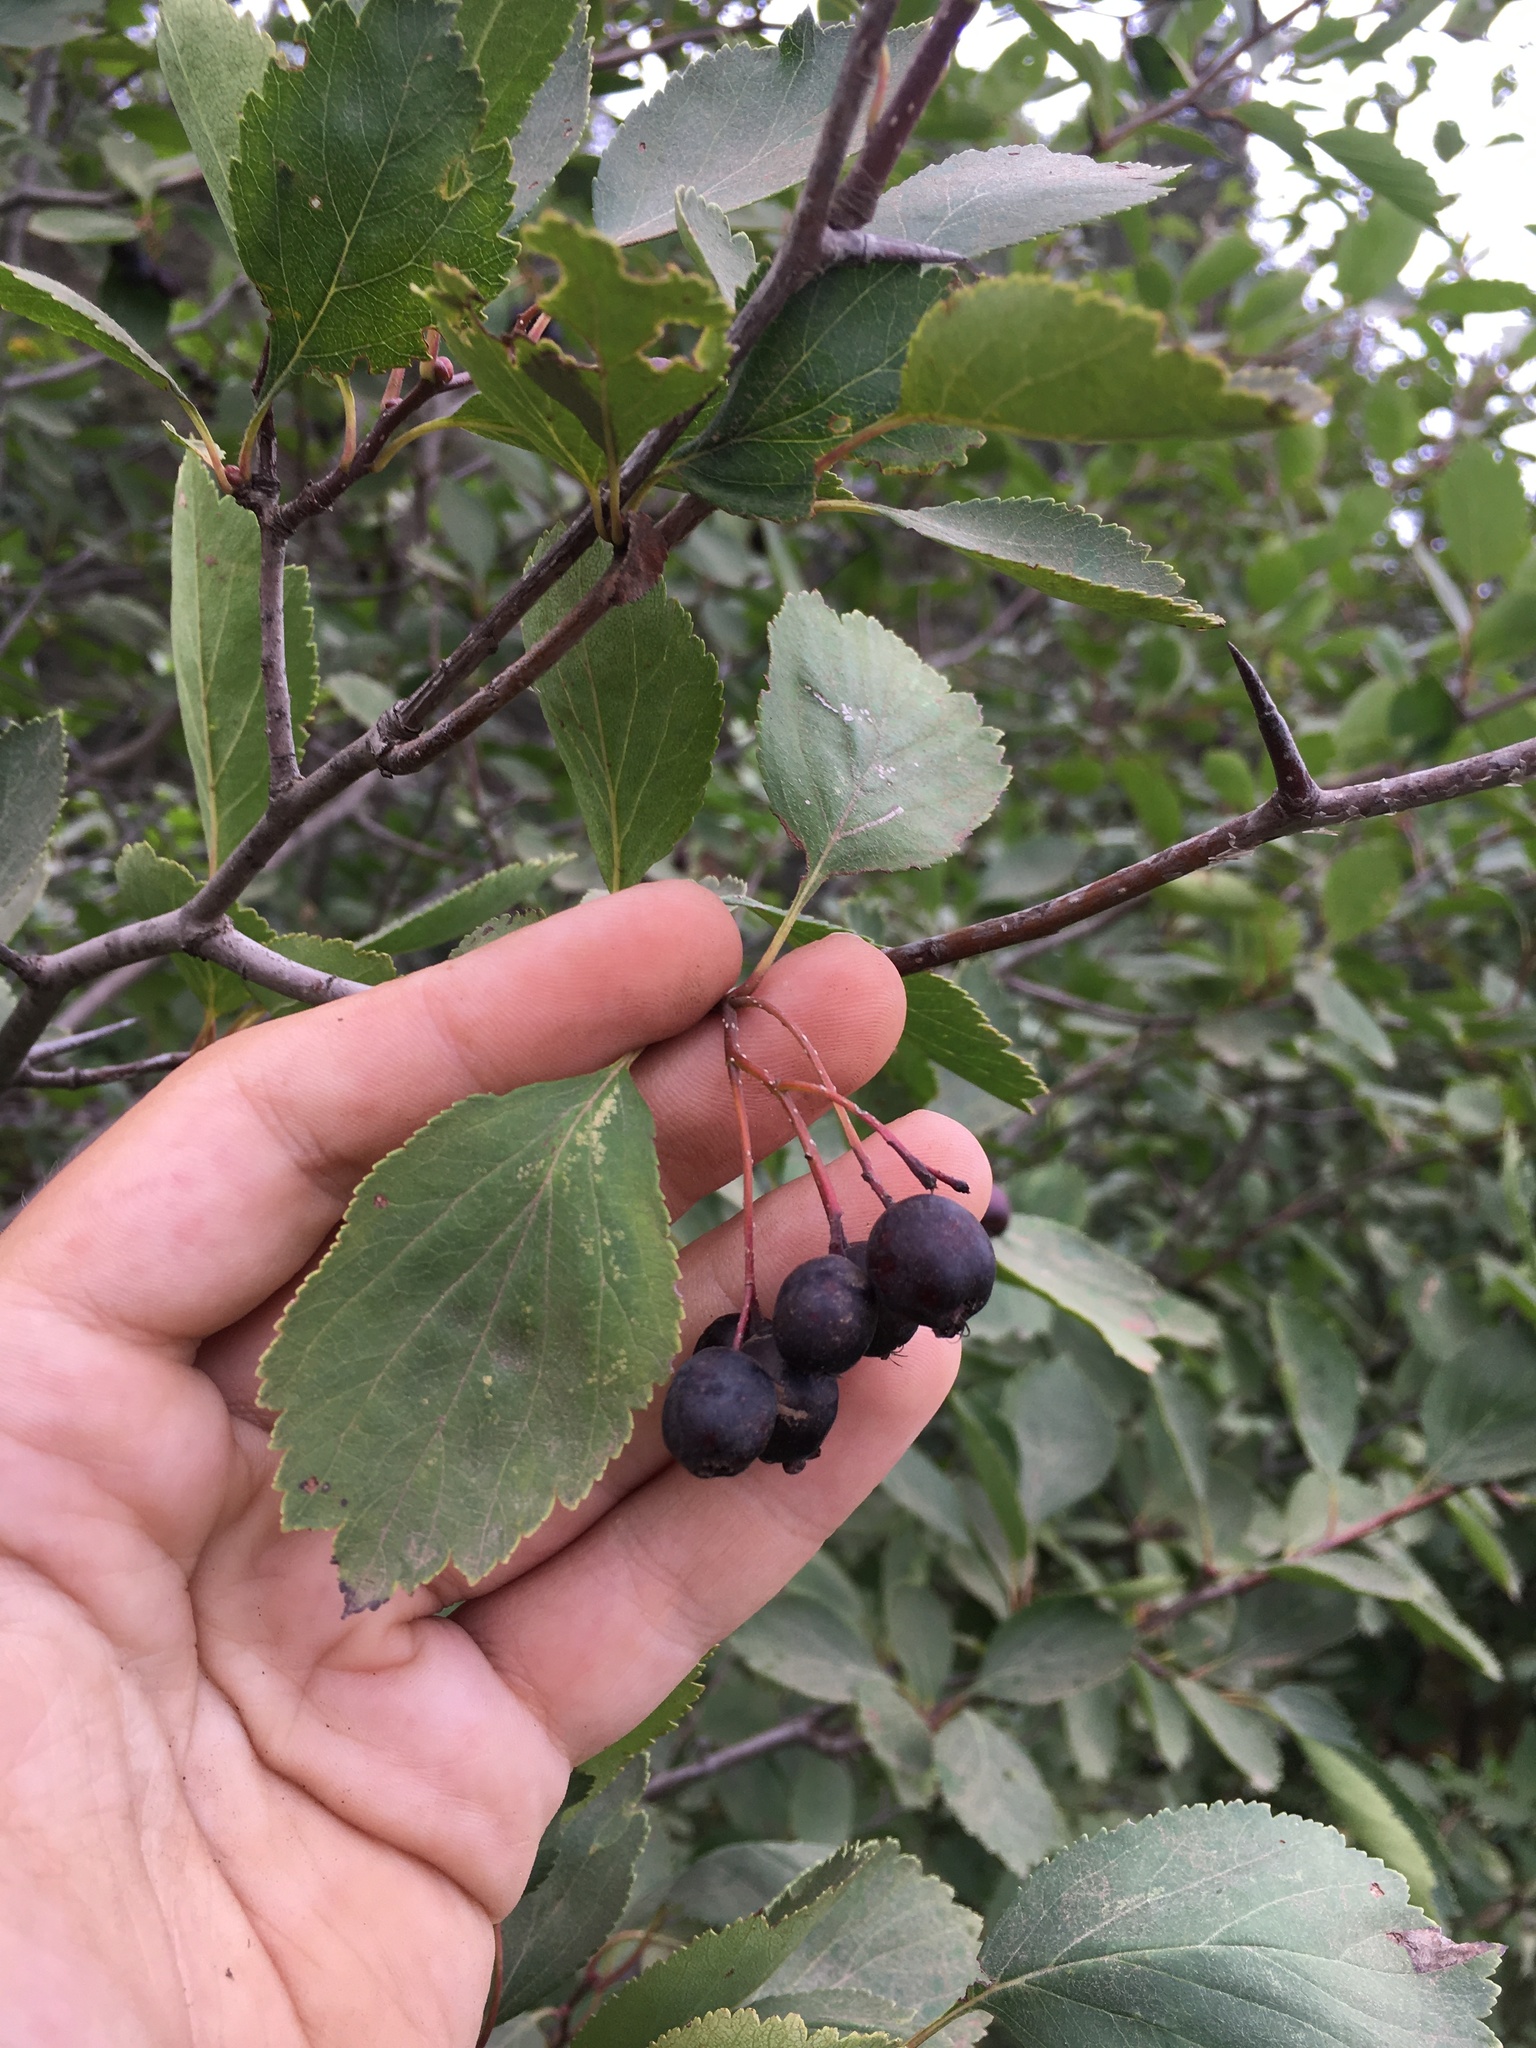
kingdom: Plantae
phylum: Tracheophyta
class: Magnoliopsida
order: Rosales
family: Rosaceae
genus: Crataegus
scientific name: Crataegus douglasii
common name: Black hawthorn
